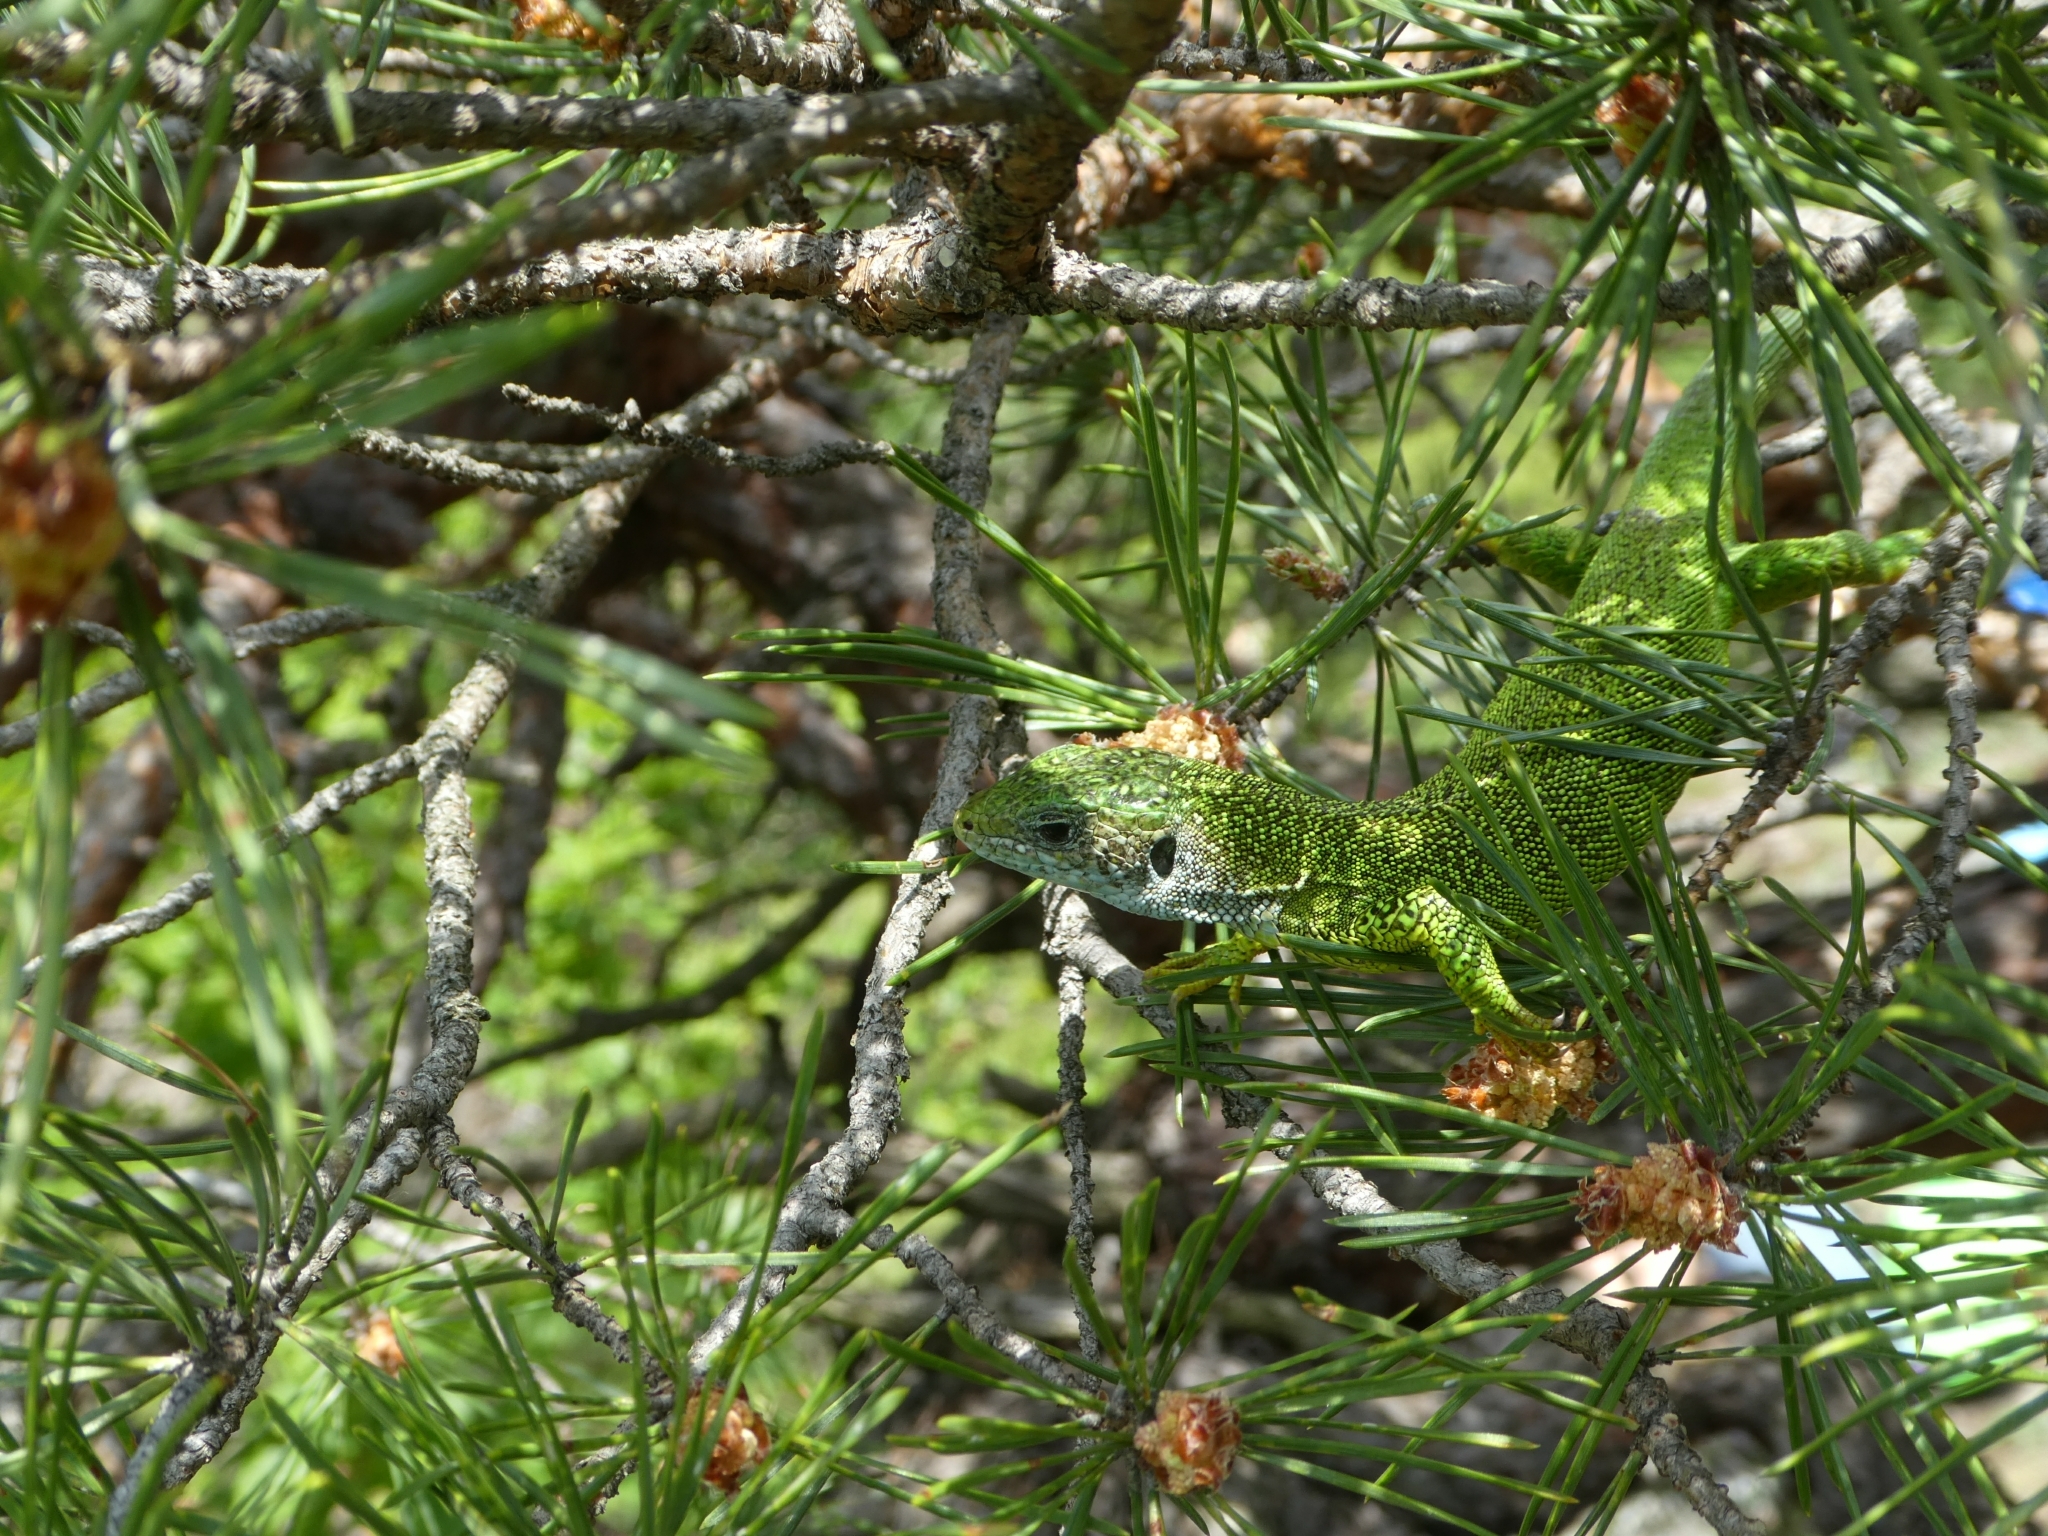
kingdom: Animalia
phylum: Chordata
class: Squamata
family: Lacertidae
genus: Lacerta
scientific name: Lacerta viridis
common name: European green lizard
